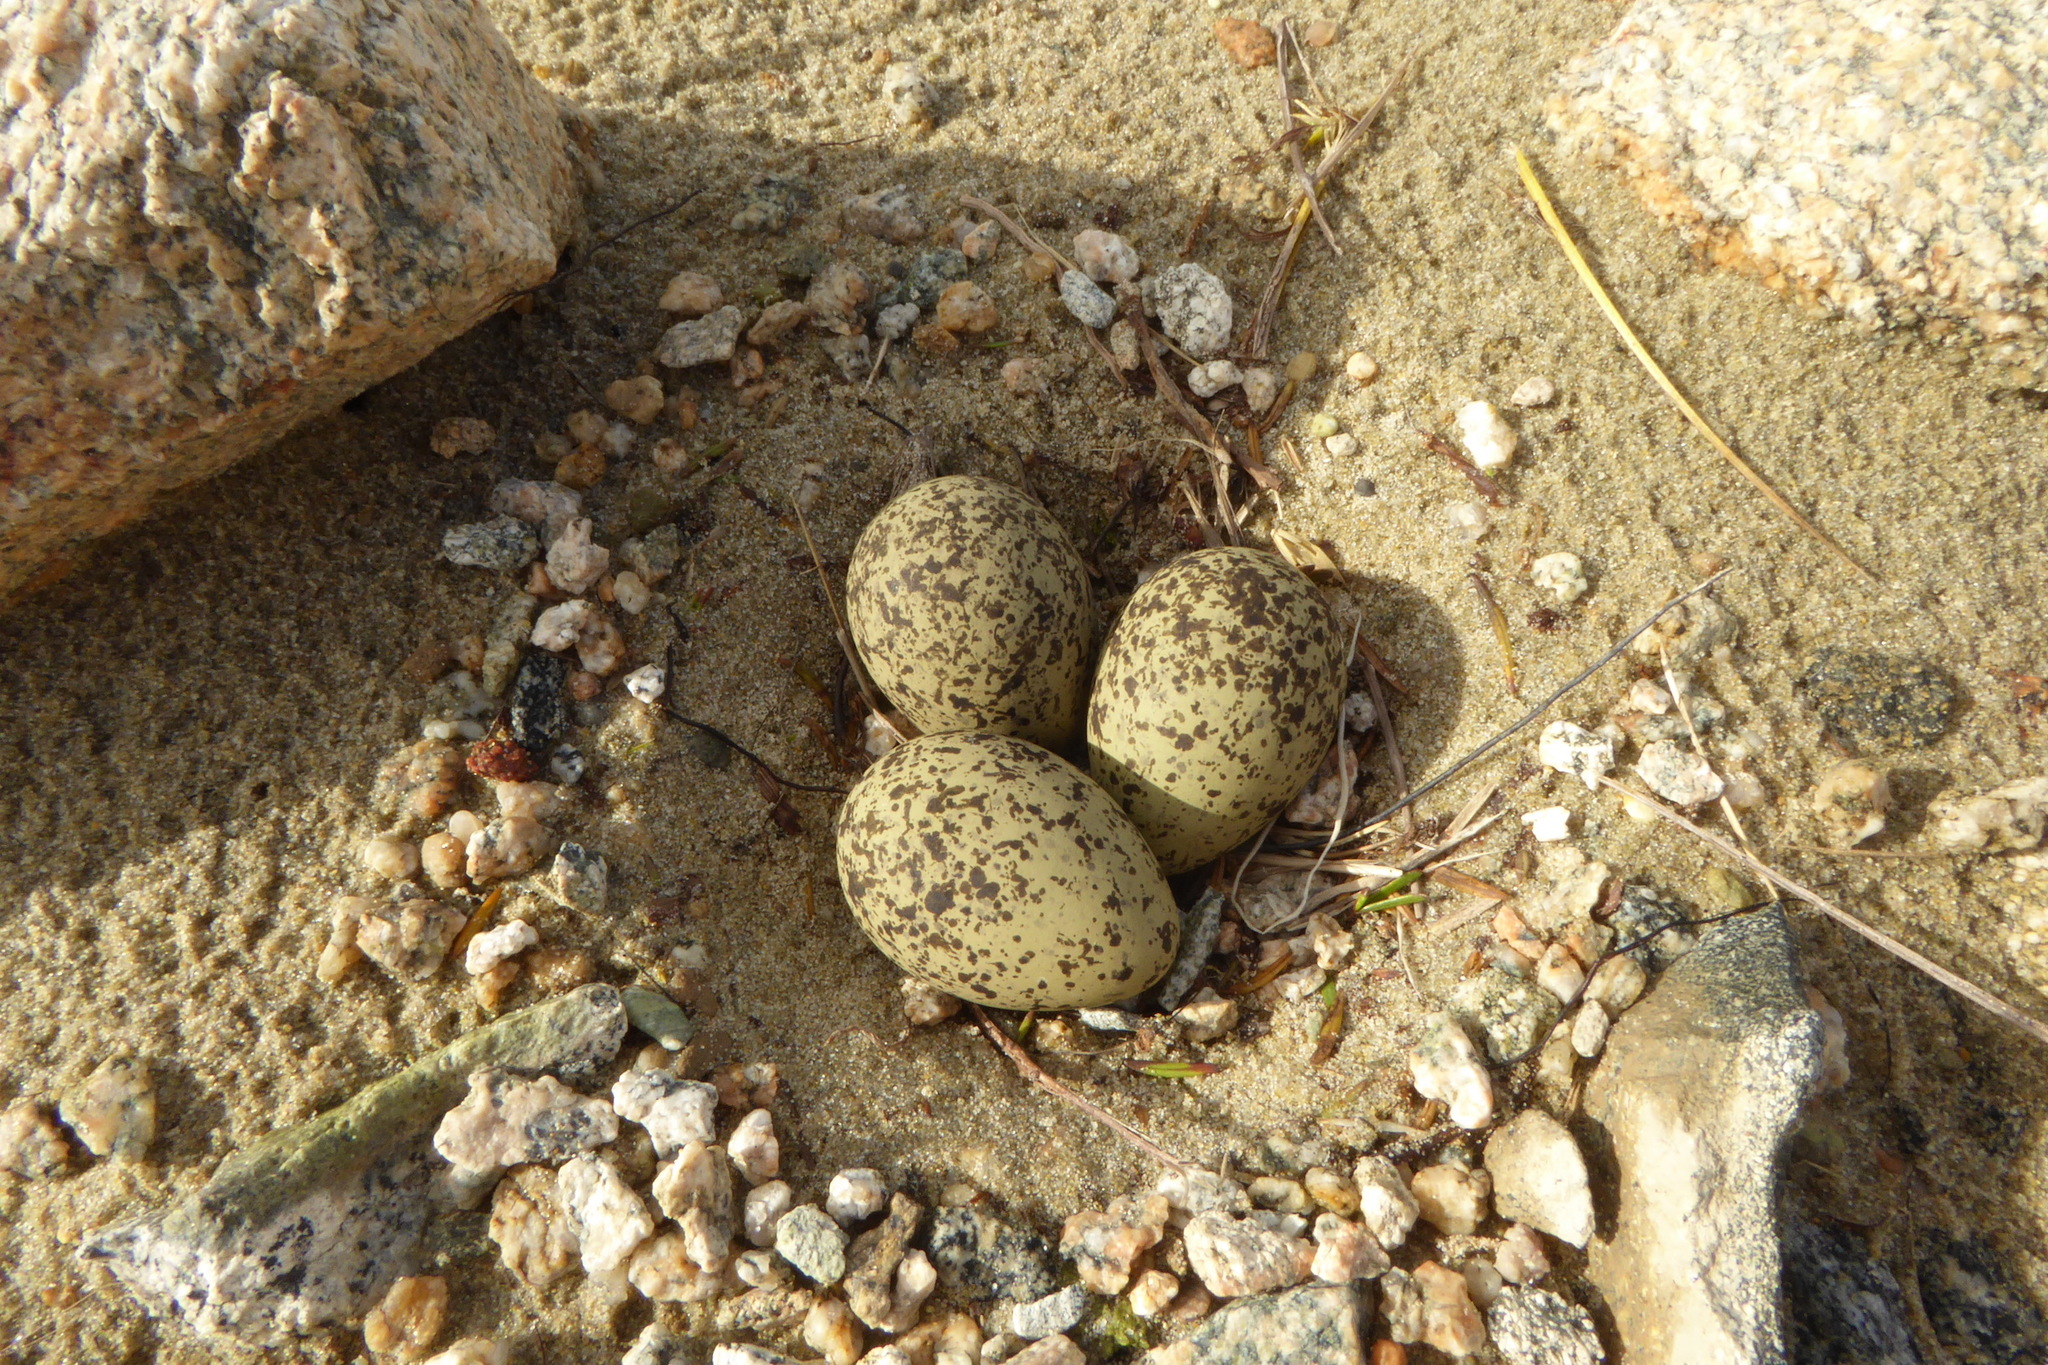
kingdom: Animalia
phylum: Chordata
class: Aves
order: Charadriiformes
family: Charadriidae
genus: Anarhynchus
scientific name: Anarhynchus
